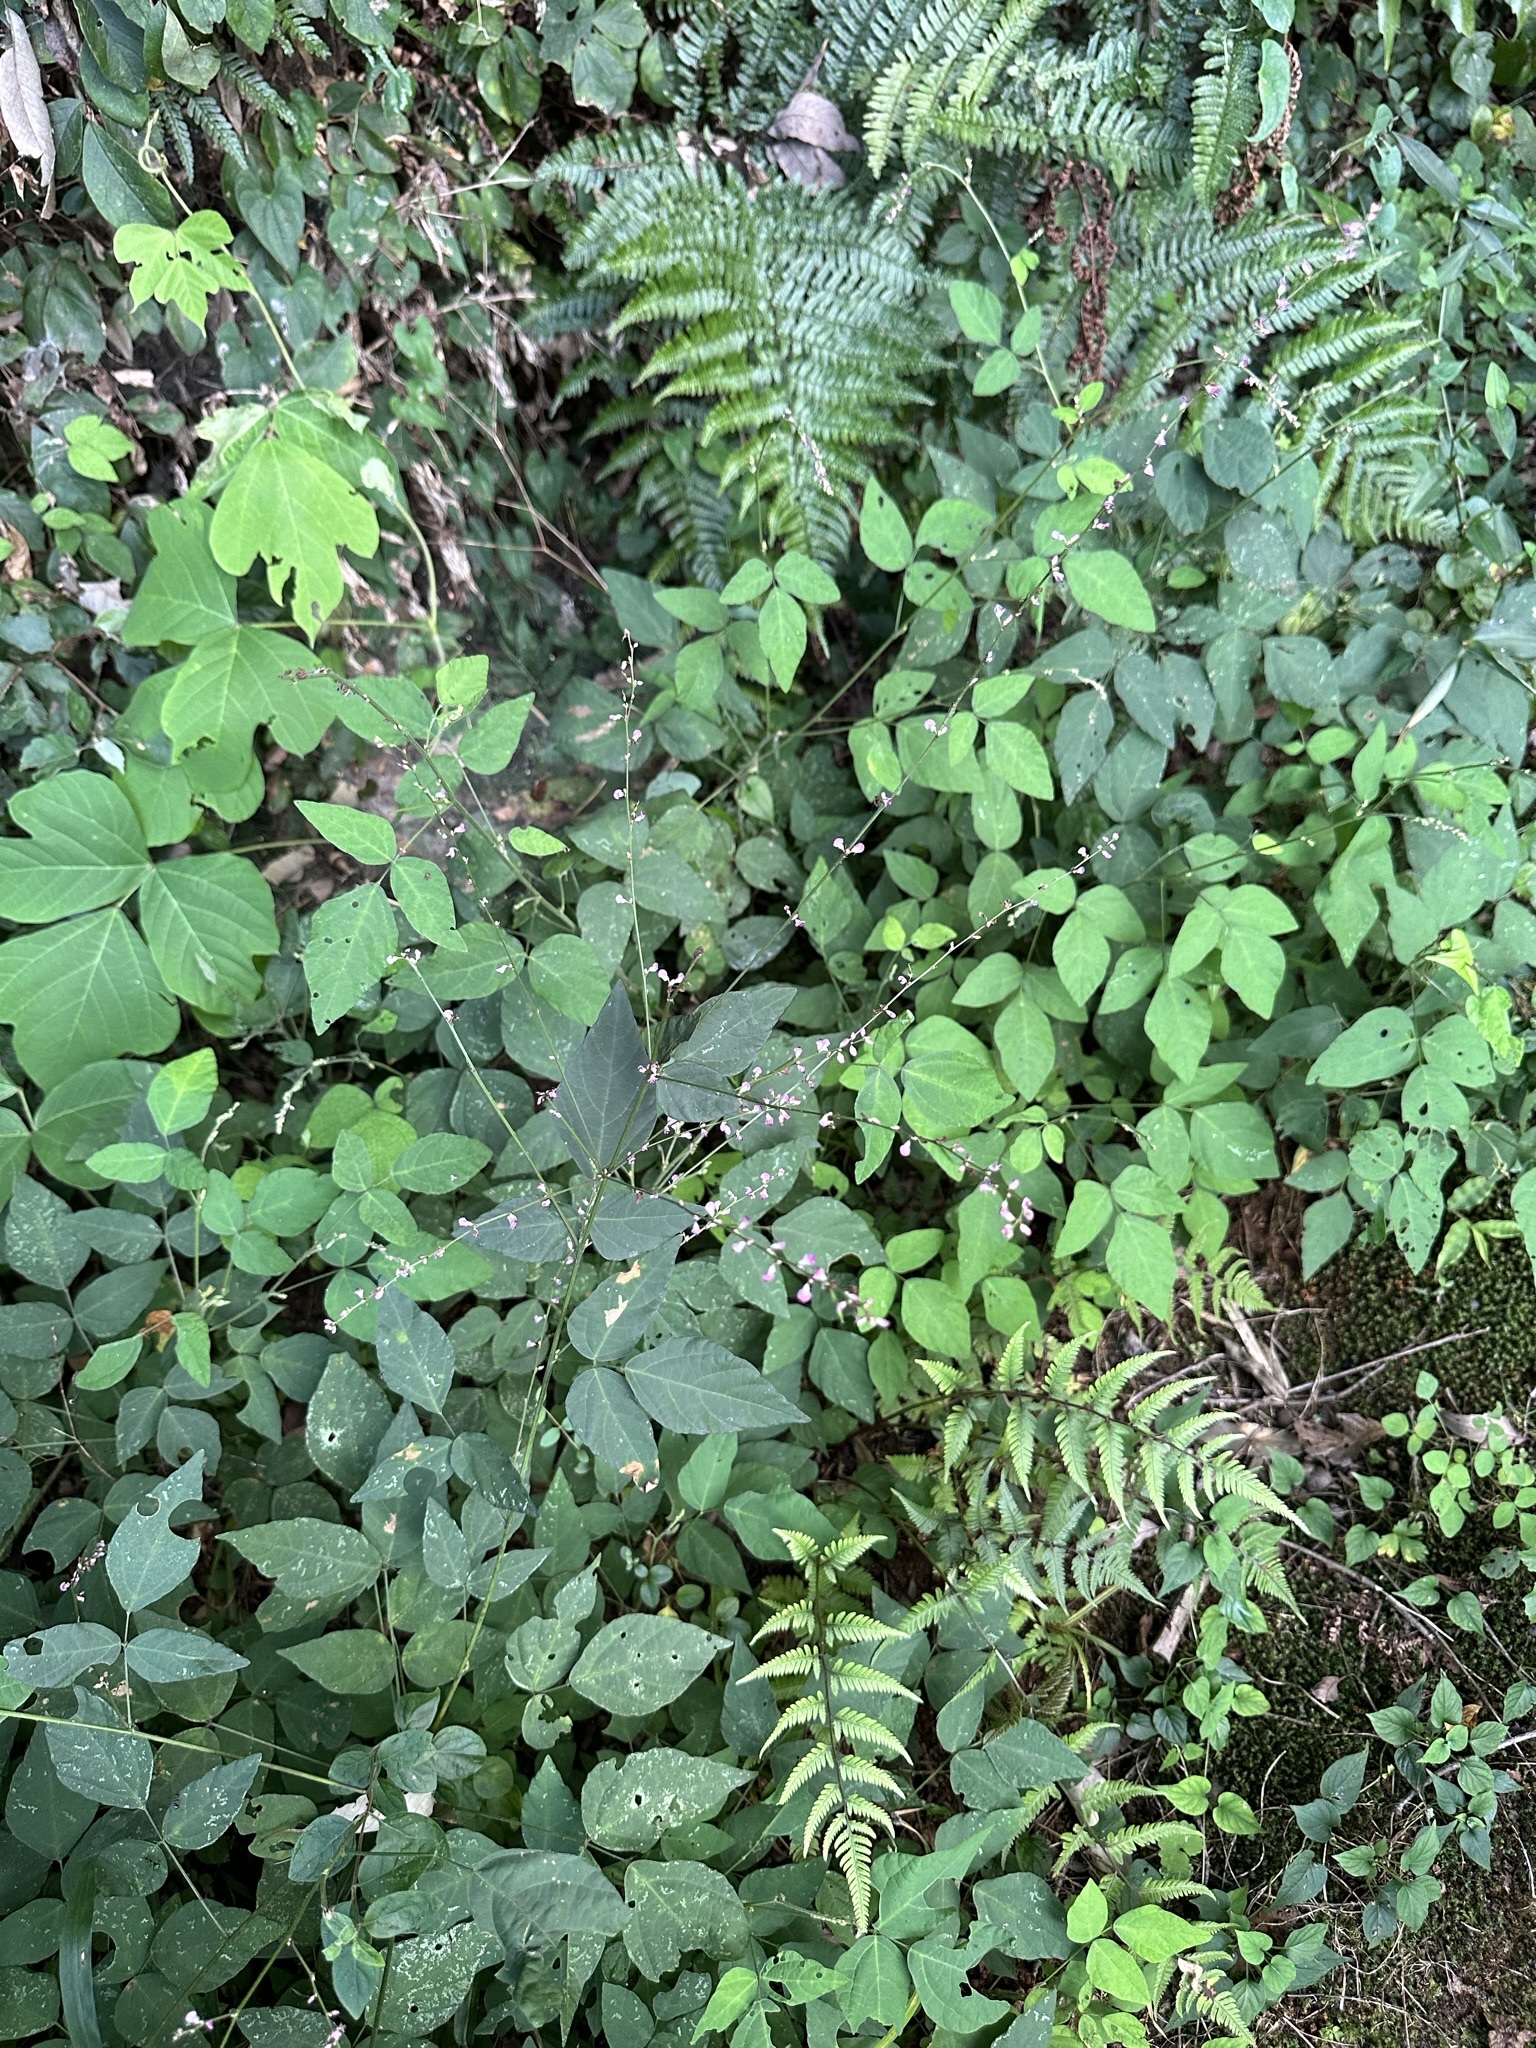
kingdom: Plantae
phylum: Tracheophyta
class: Magnoliopsida
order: Fabales
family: Fabaceae
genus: Hylodesmum
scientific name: Hylodesmum podocarpum
